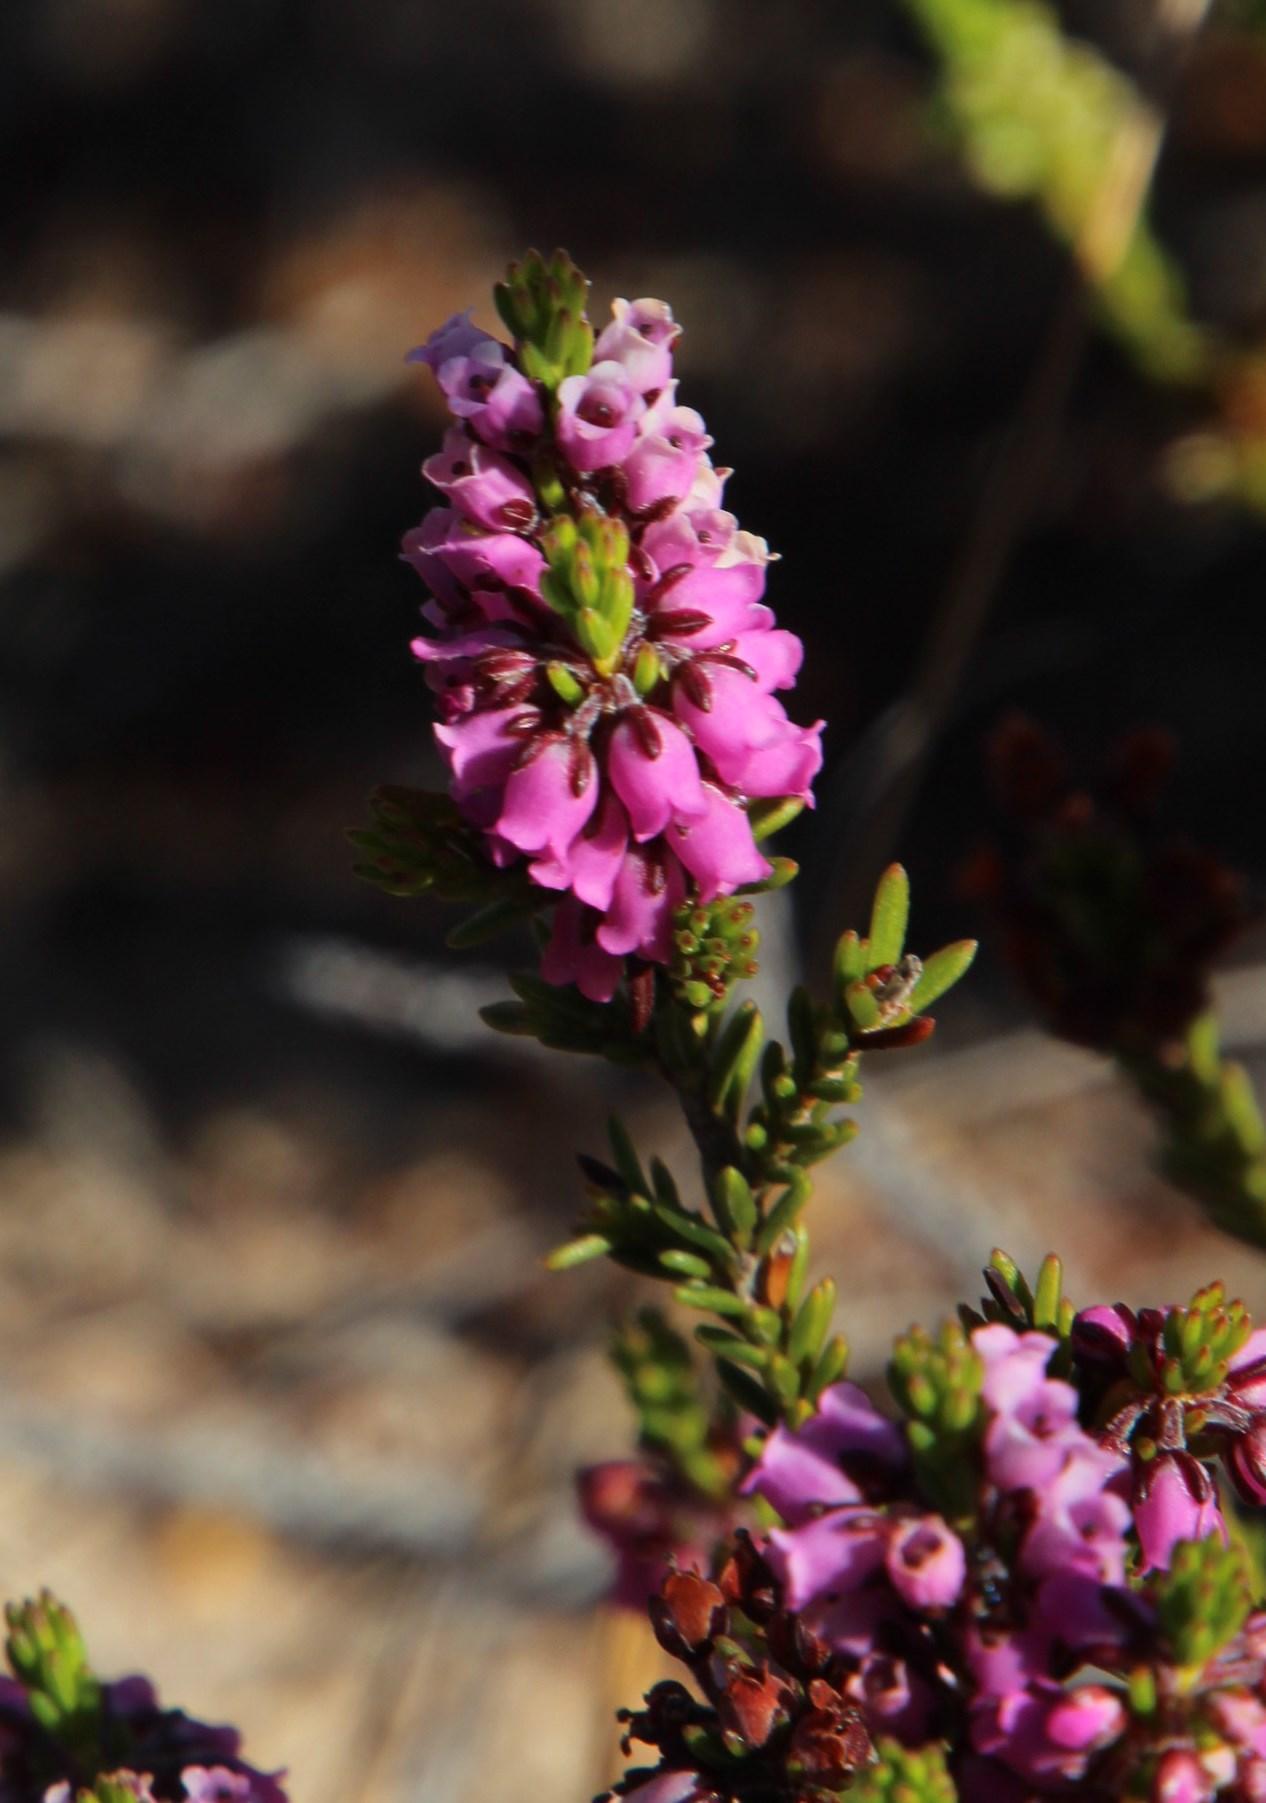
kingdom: Plantae
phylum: Tracheophyta
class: Magnoliopsida
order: Ericales
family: Ericaceae
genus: Erica
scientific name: Erica pulchella
